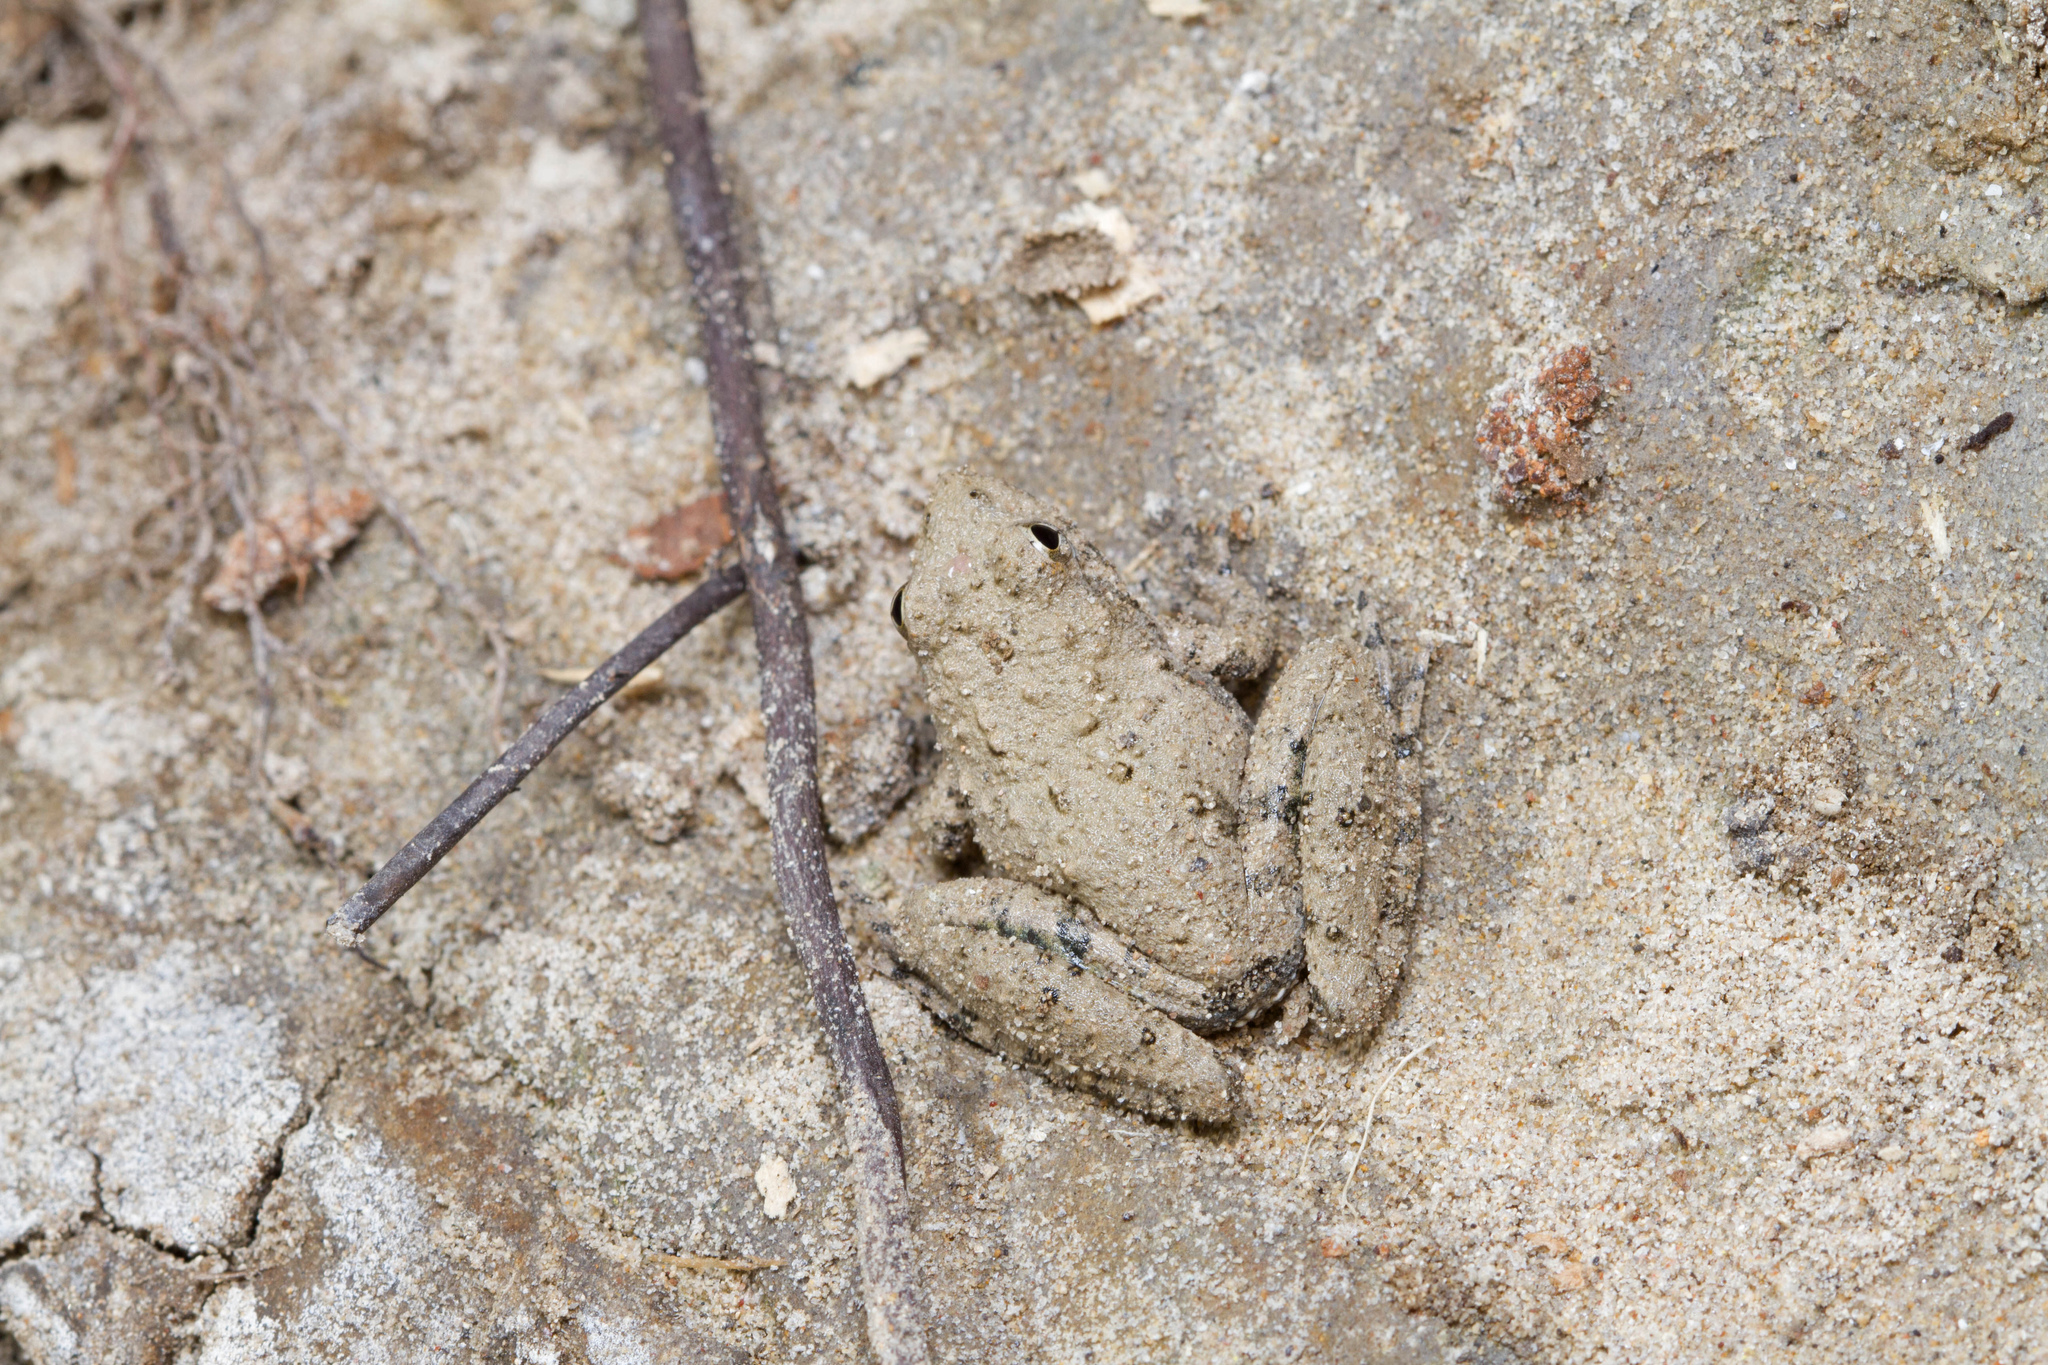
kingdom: Animalia
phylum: Chordata
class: Amphibia
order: Anura
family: Hylidae
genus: Acris
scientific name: Acris blanchardi
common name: Blanchard's cricket frog
